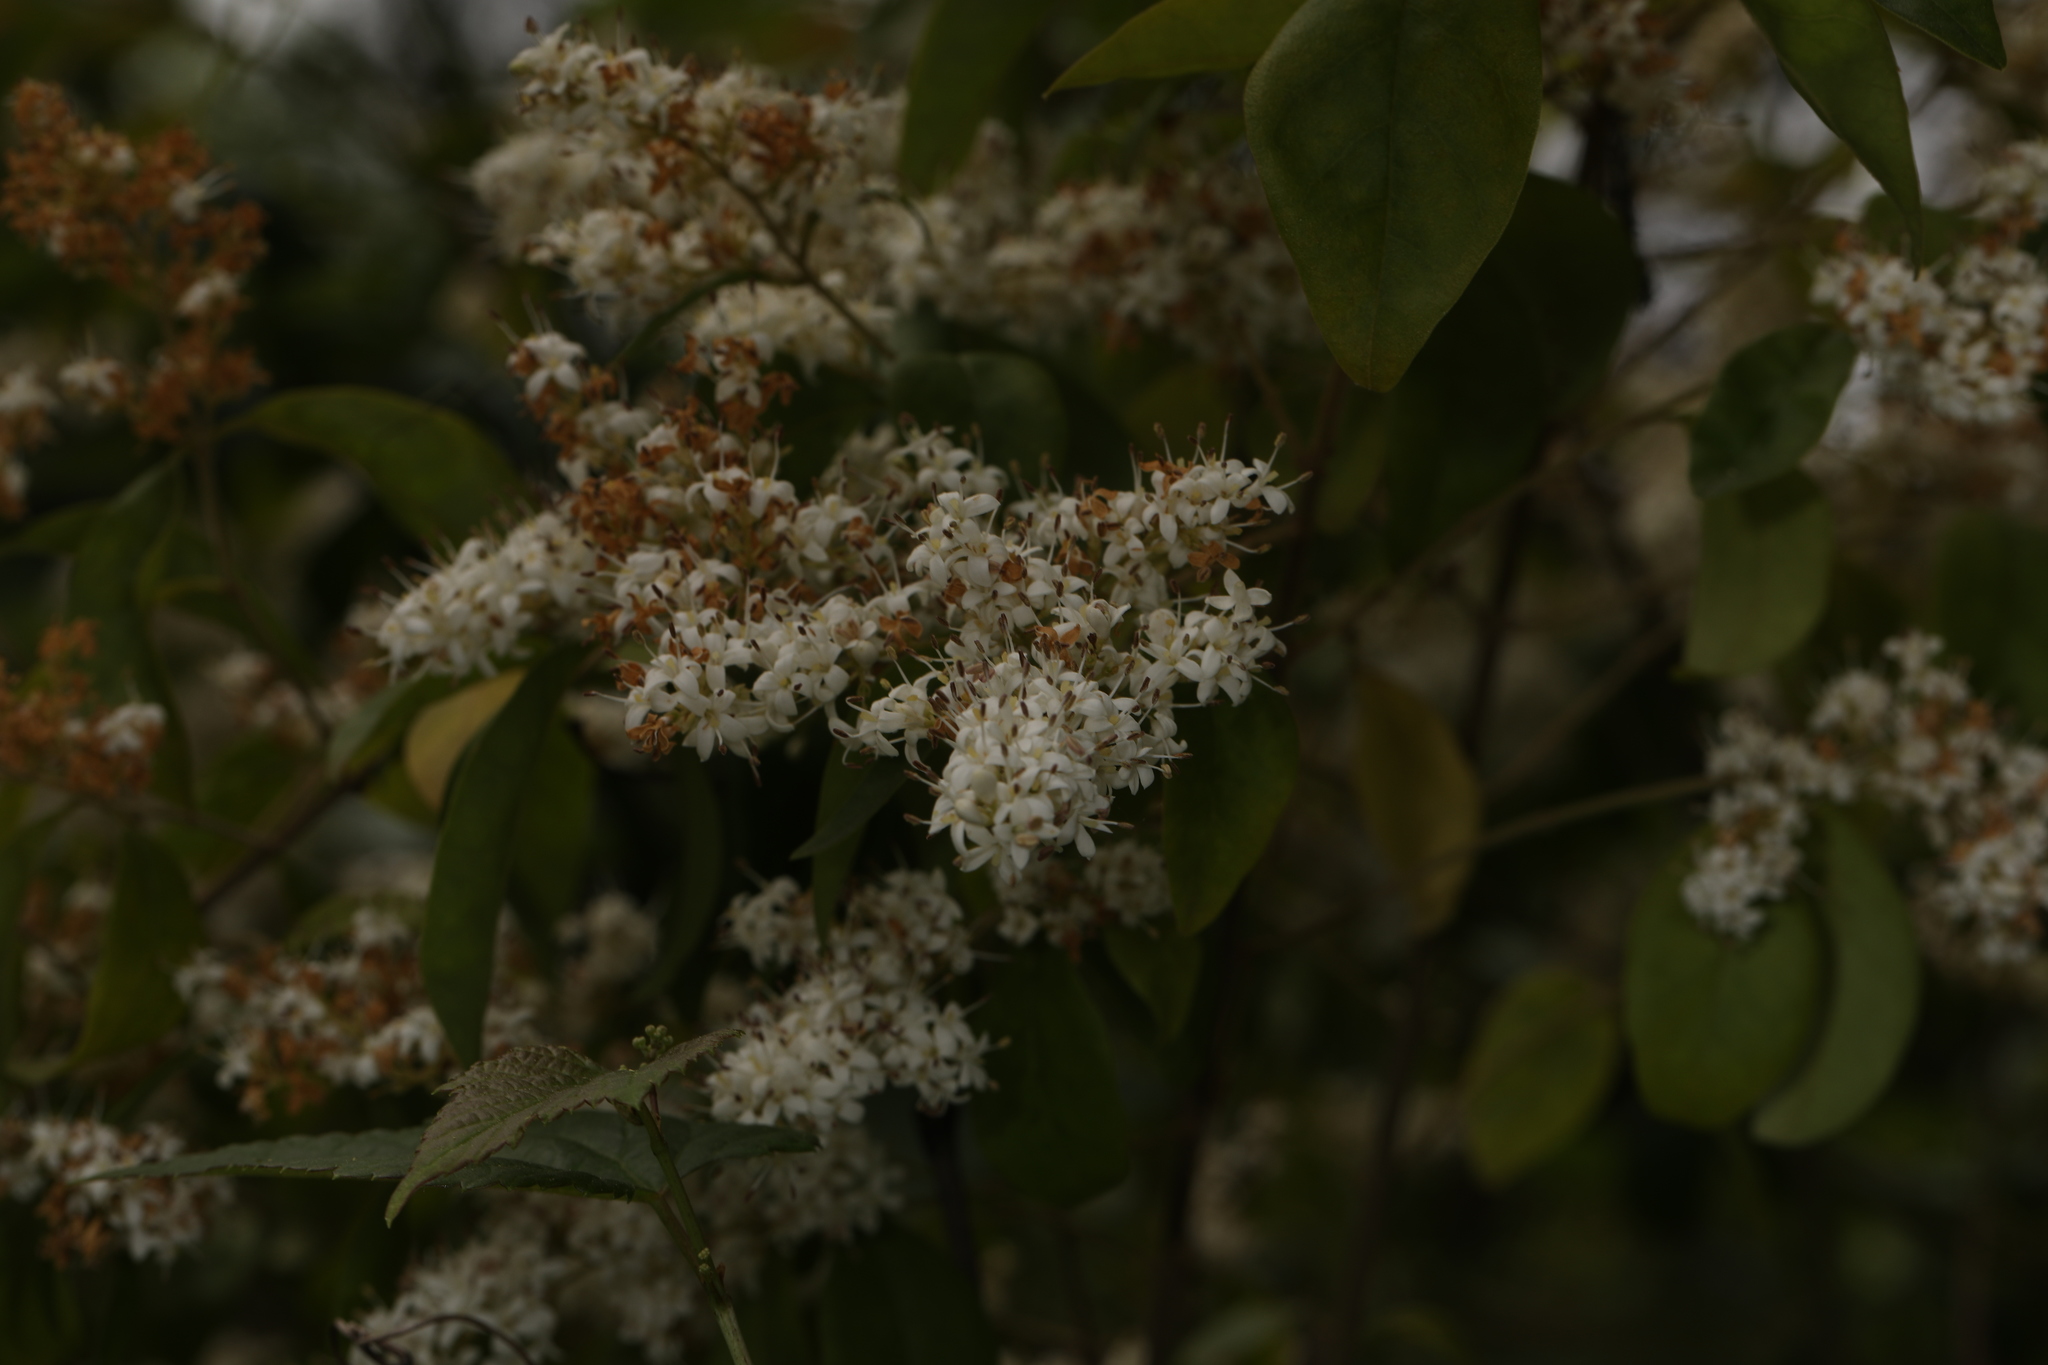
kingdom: Plantae
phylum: Tracheophyta
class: Magnoliopsida
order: Lamiales
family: Oleaceae
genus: Ligustrum
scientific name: Ligustrum sinense
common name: Chinese privet
